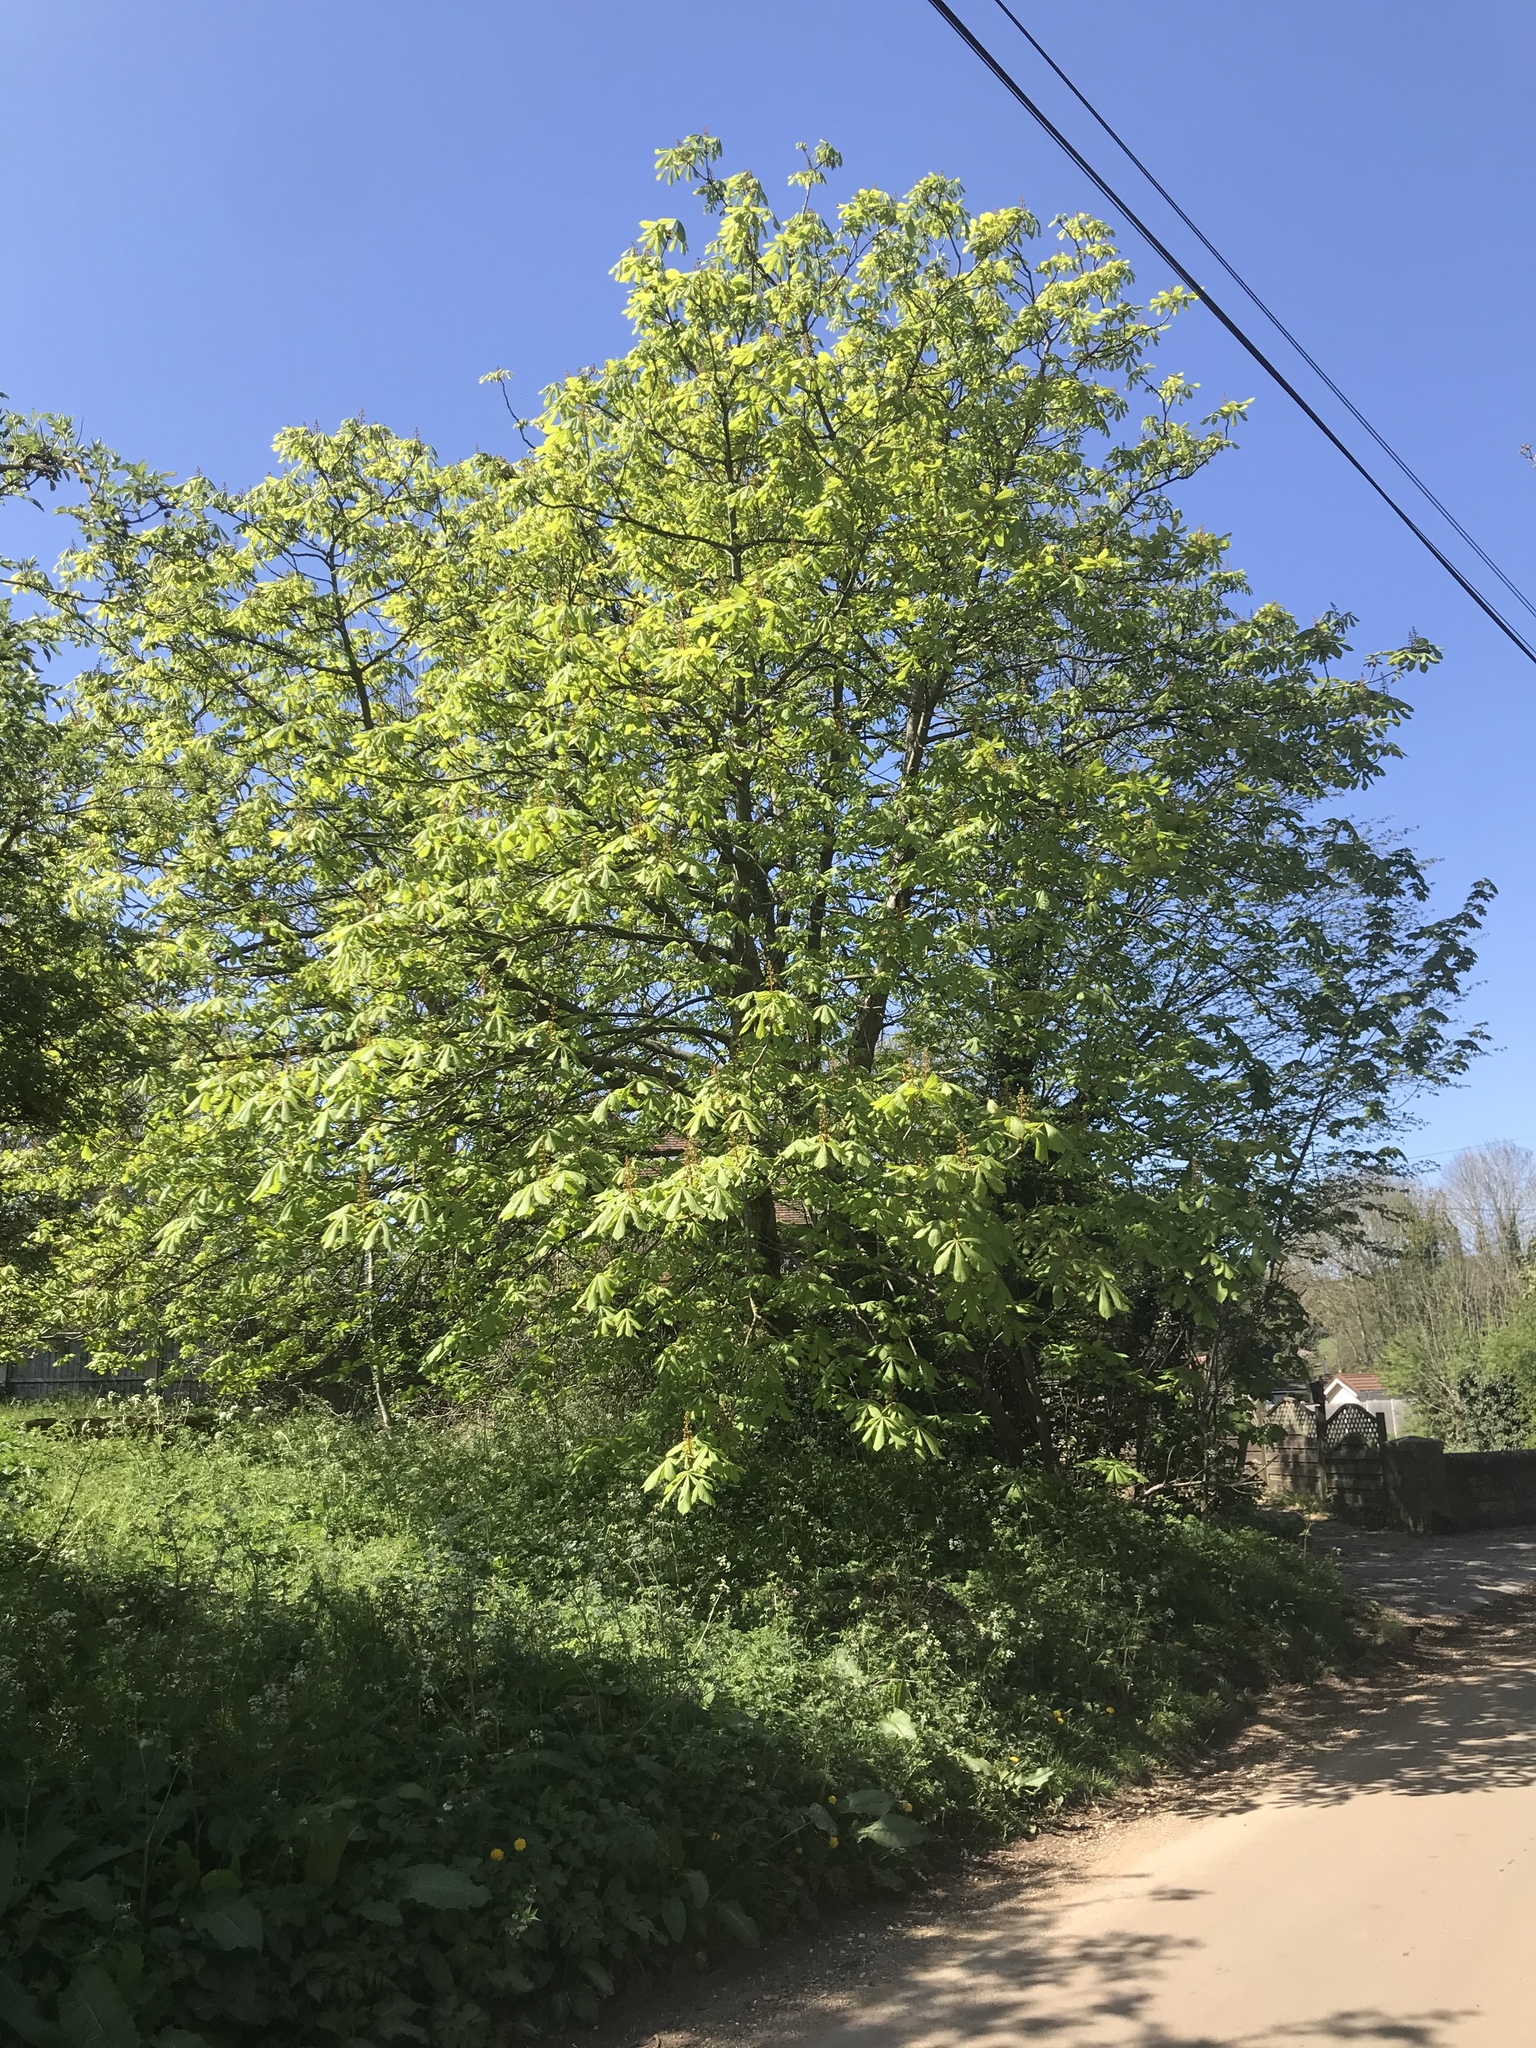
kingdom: Plantae
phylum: Tracheophyta
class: Magnoliopsida
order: Sapindales
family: Sapindaceae
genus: Aesculus
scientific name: Aesculus hippocastanum
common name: Horse-chestnut
